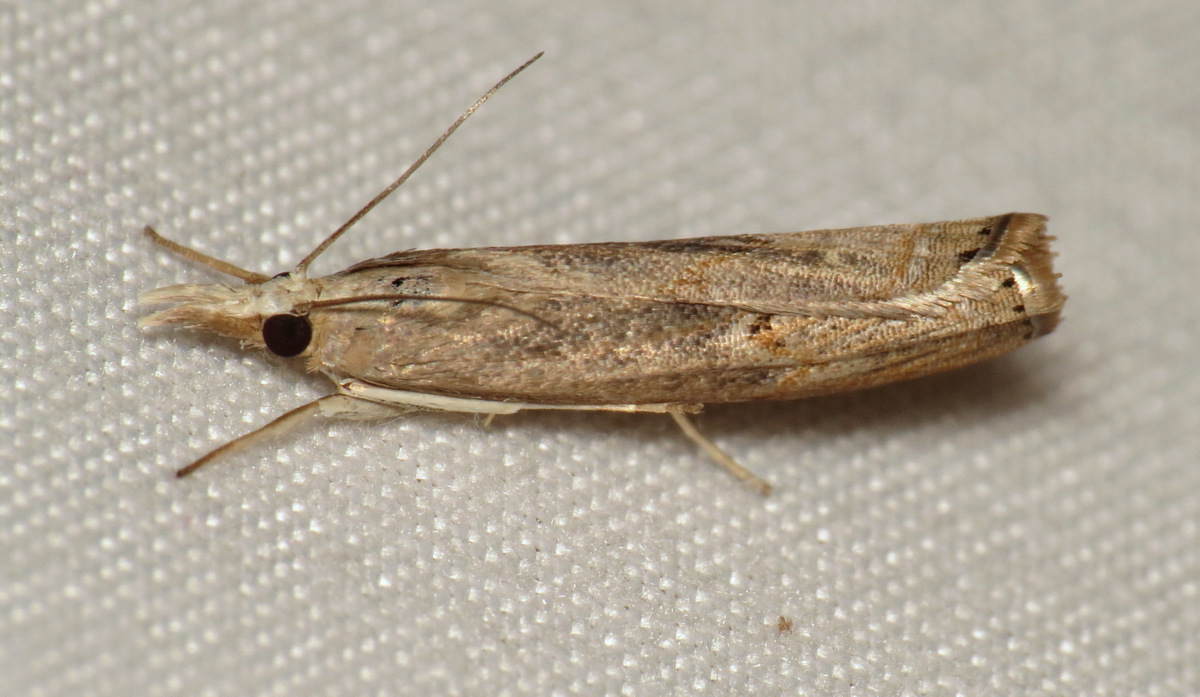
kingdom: Animalia
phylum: Arthropoda
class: Insecta
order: Lepidoptera
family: Crambidae
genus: Parapediasia
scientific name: Parapediasia teterellus
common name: Bluegrass webworm moth
